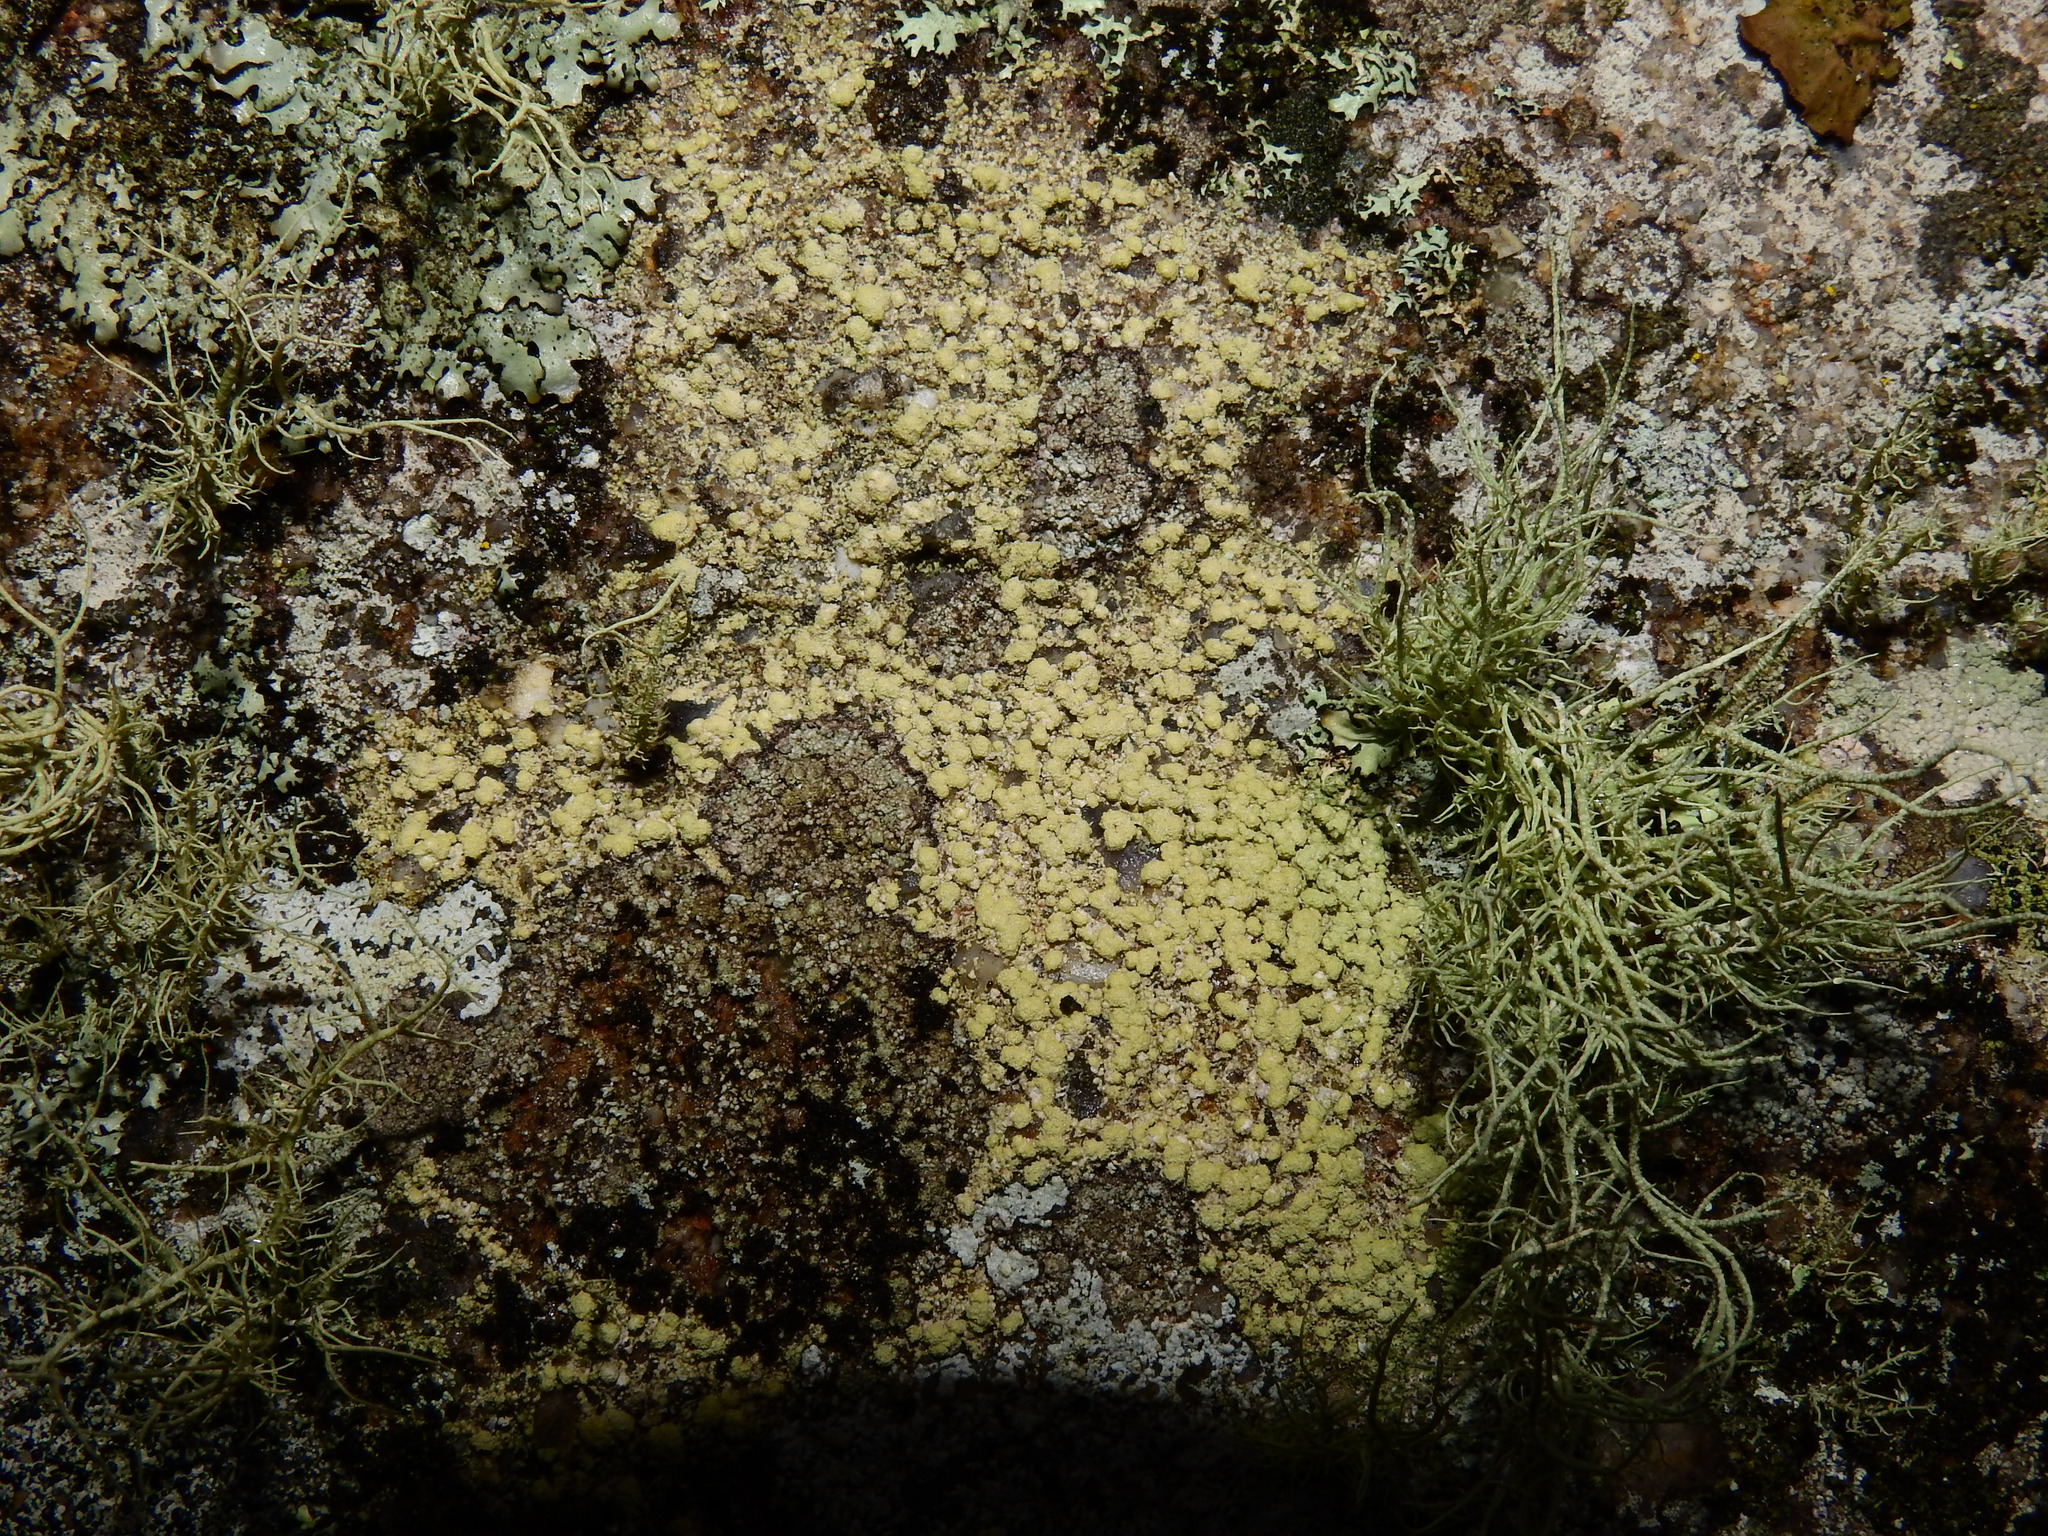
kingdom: Fungi
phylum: Ascomycota
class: Lecanoromycetes
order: Lecanorales
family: Ramalinaceae
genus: Biatora
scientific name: Biatora appalachensis
